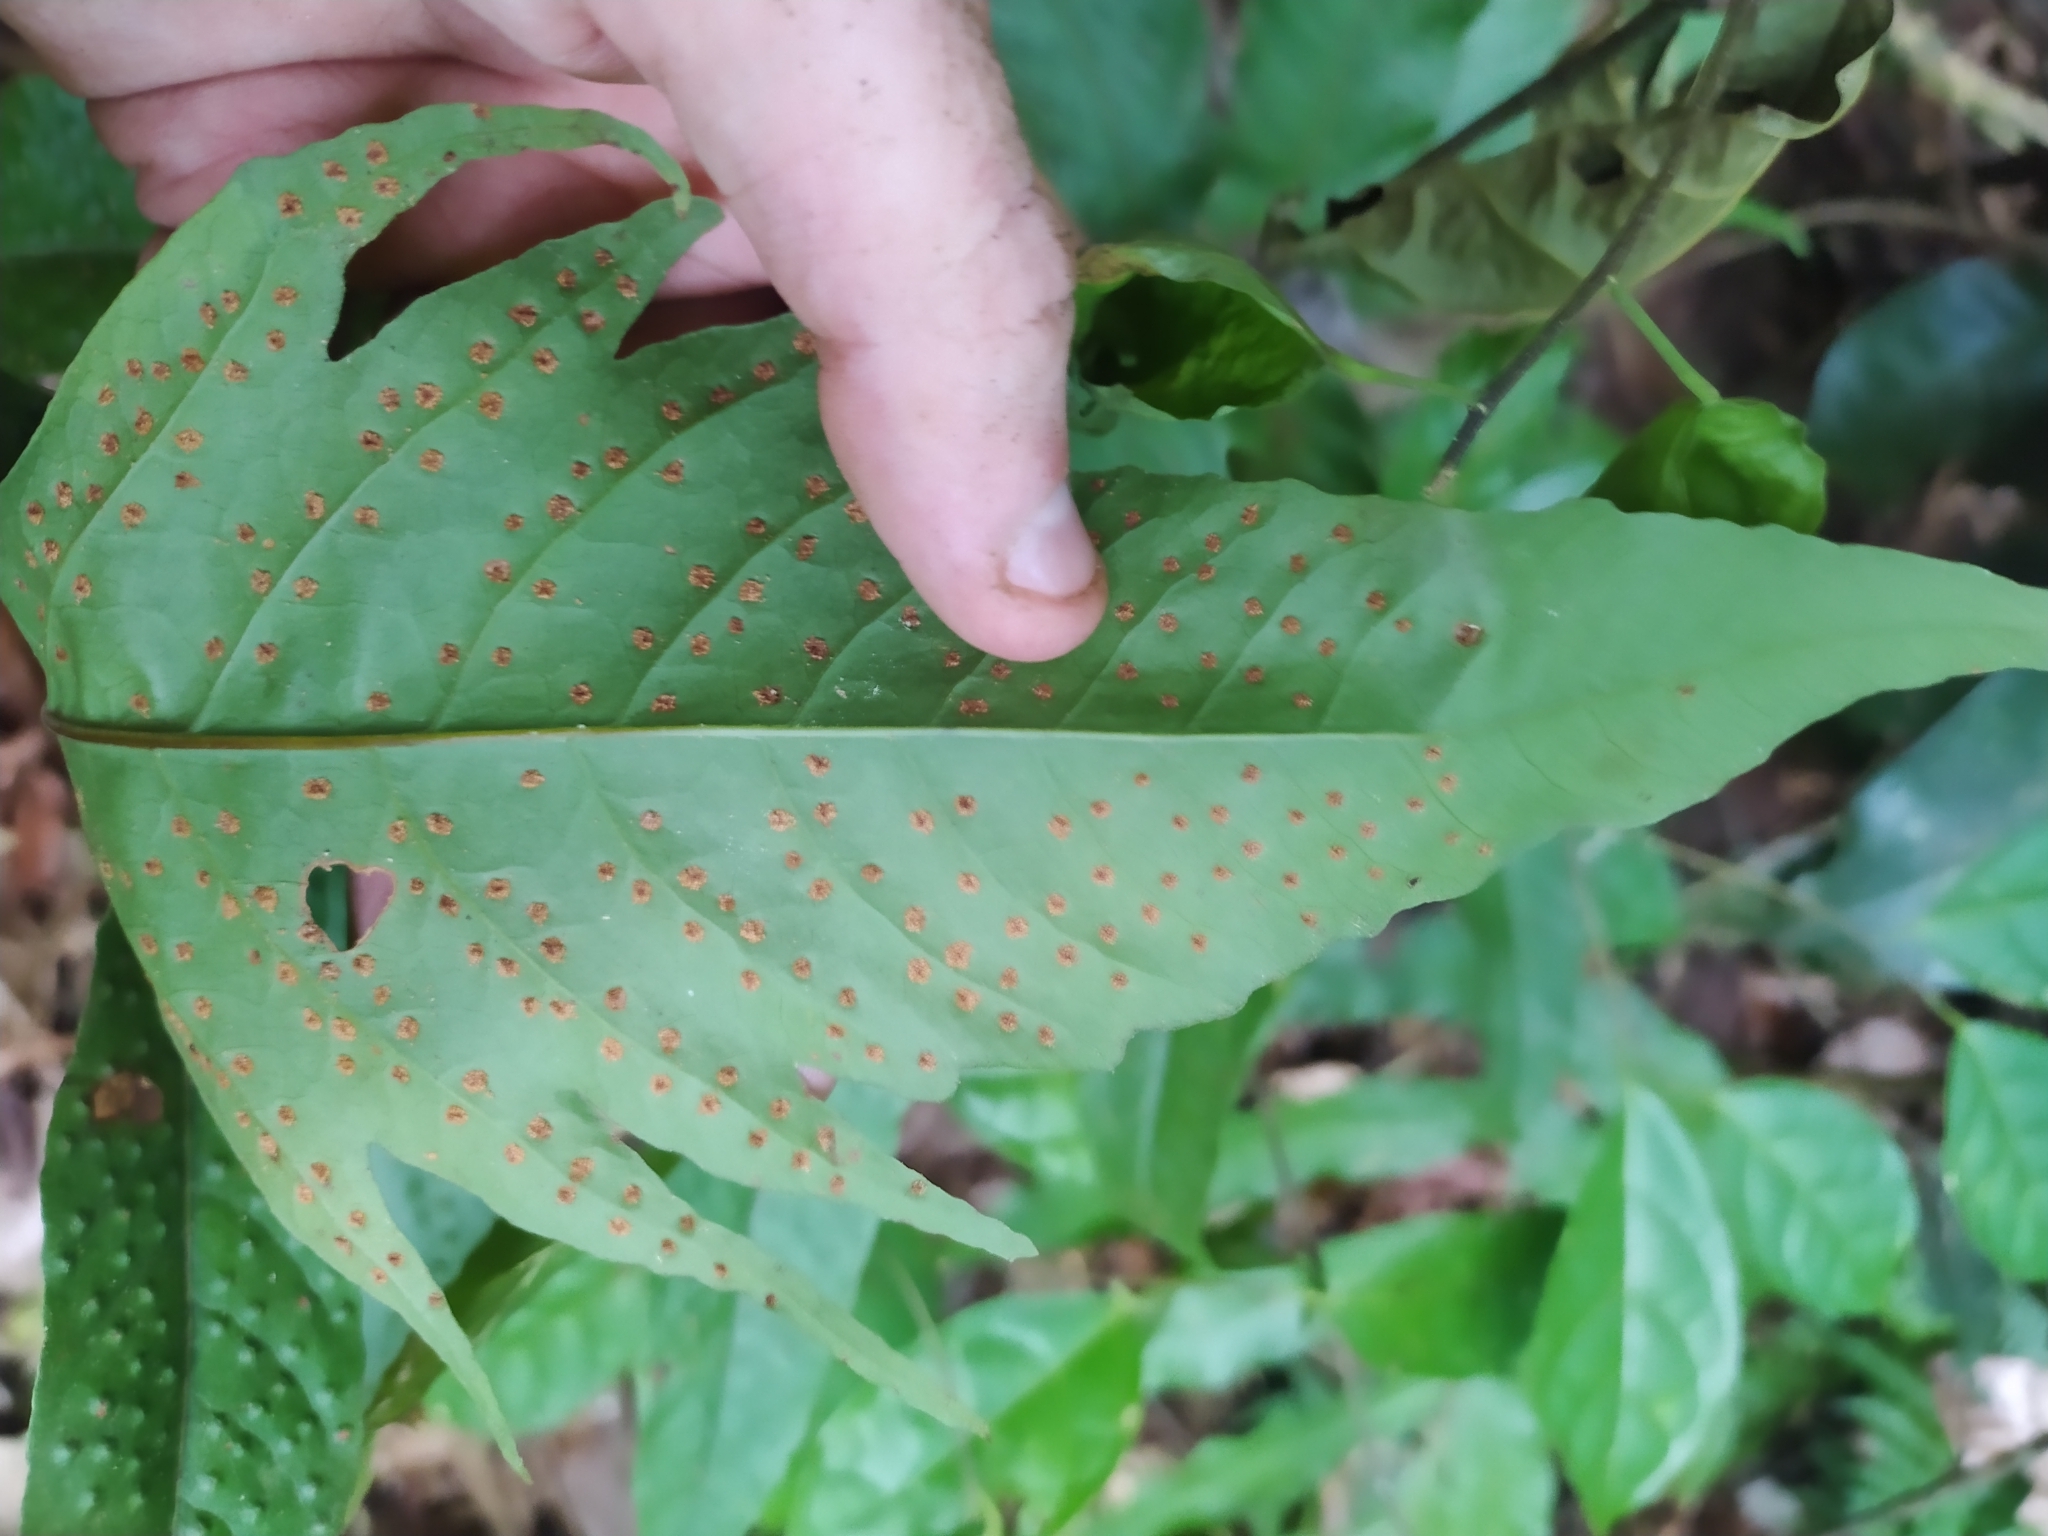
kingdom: Plantae
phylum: Tracheophyta
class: Polypodiopsida
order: Polypodiales
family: Tectariaceae
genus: Tectaria
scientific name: Tectaria incisa
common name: Incised halberd fern
